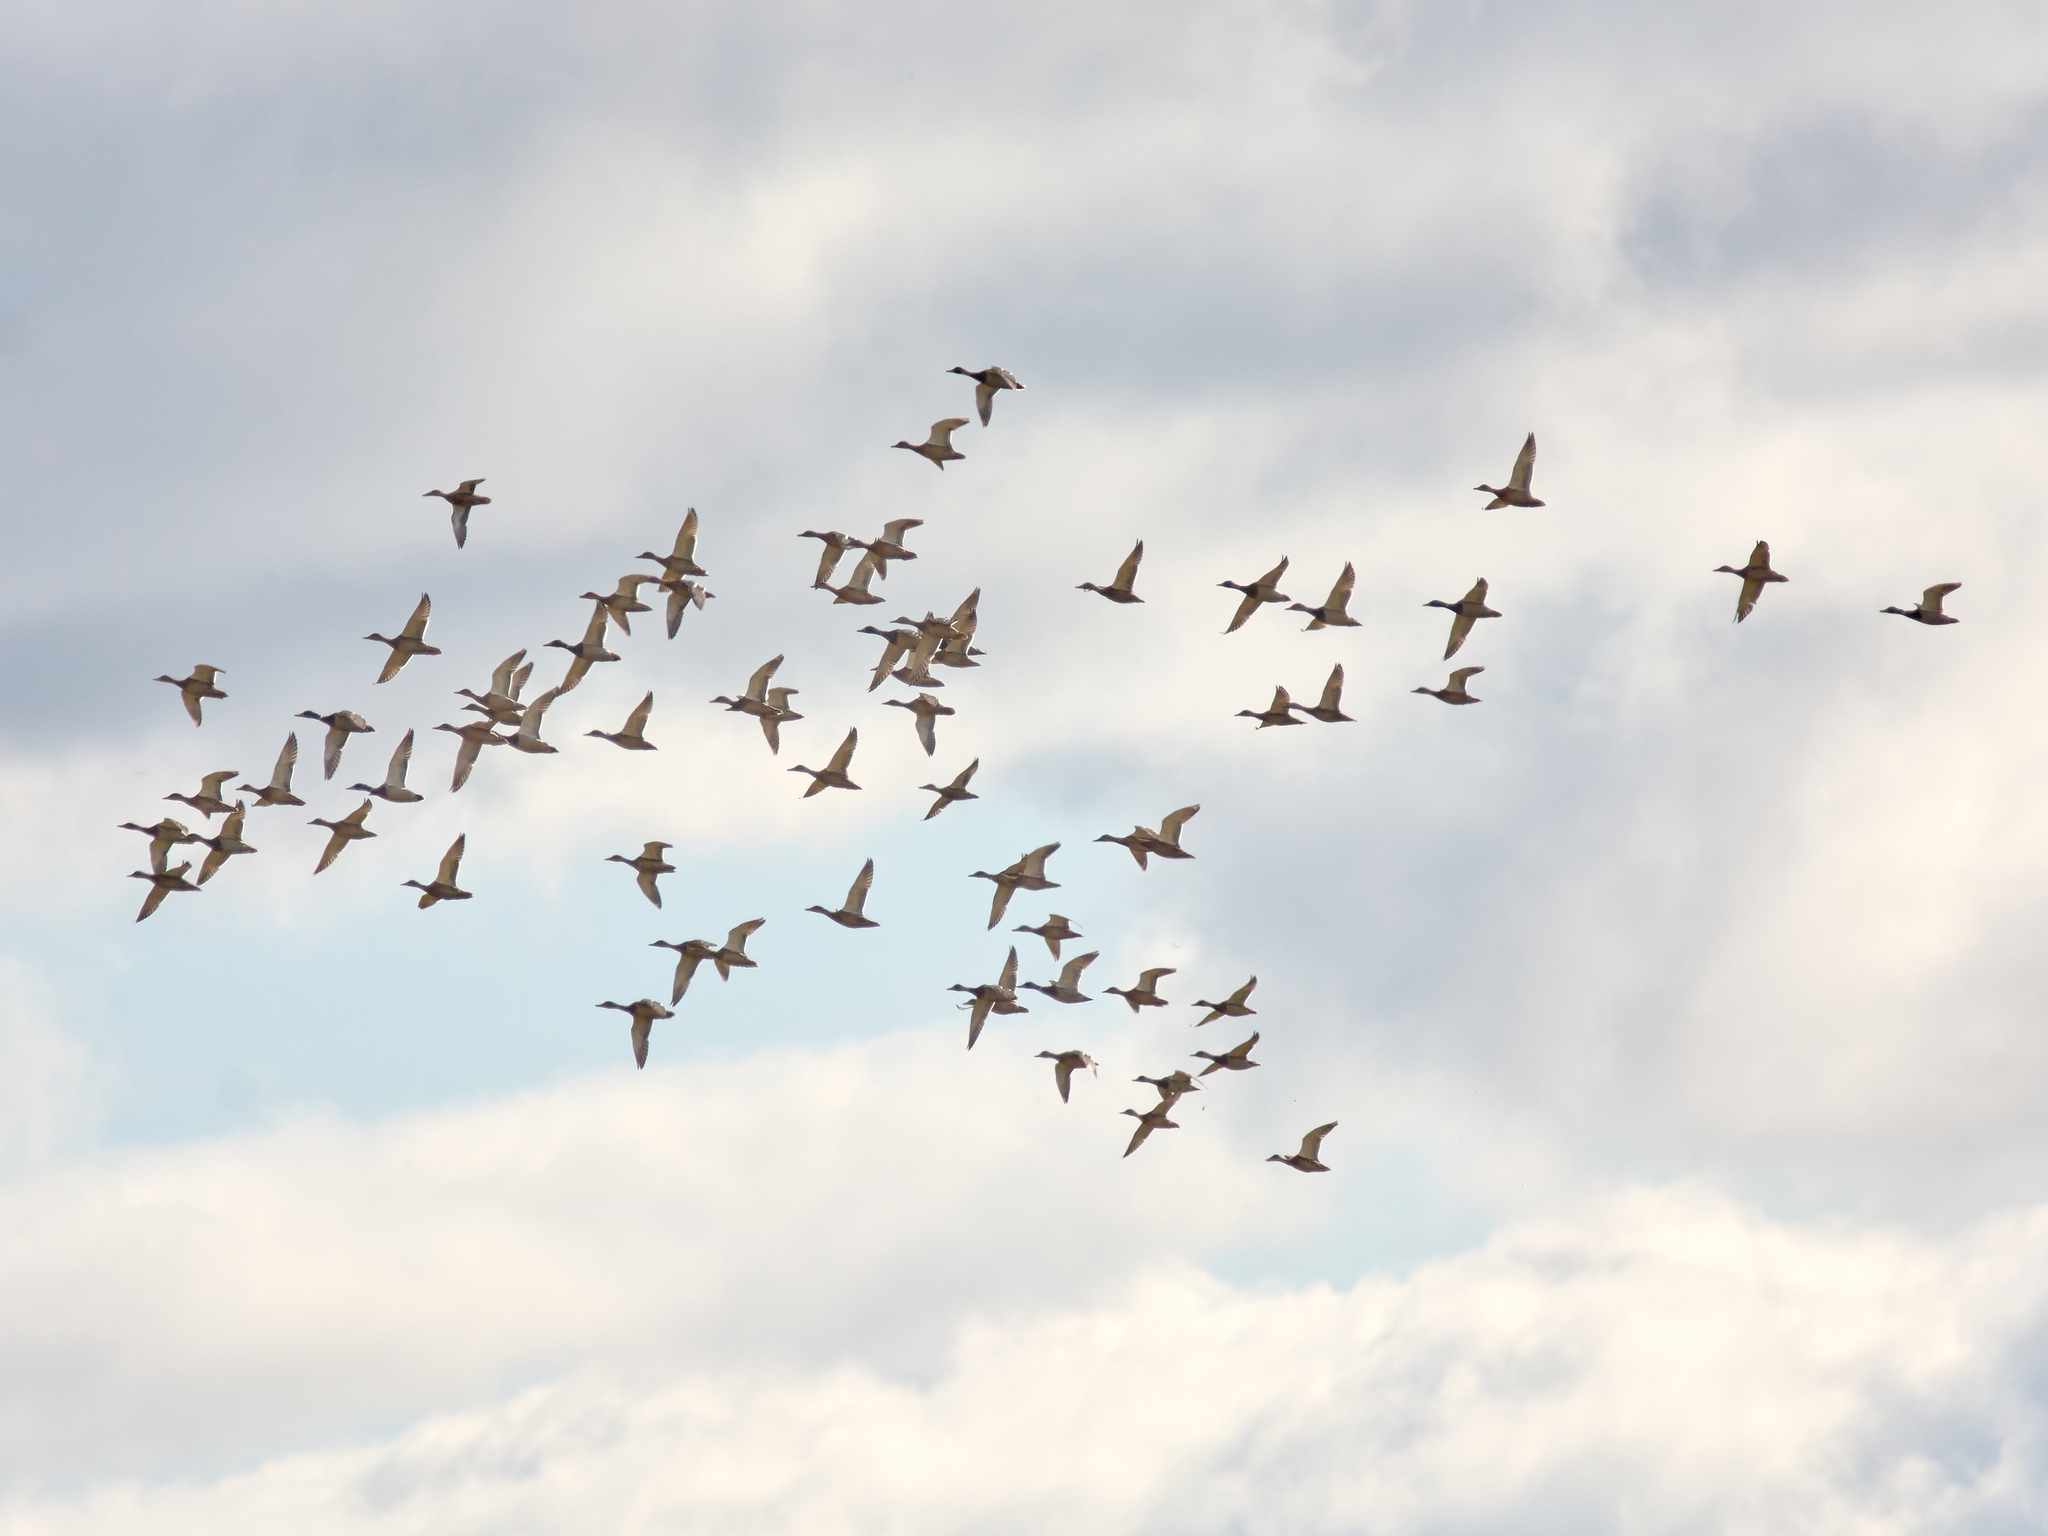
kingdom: Animalia
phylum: Chordata
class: Aves
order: Anseriformes
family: Anatidae
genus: Anas
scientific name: Anas platyrhynchos
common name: Mallard
